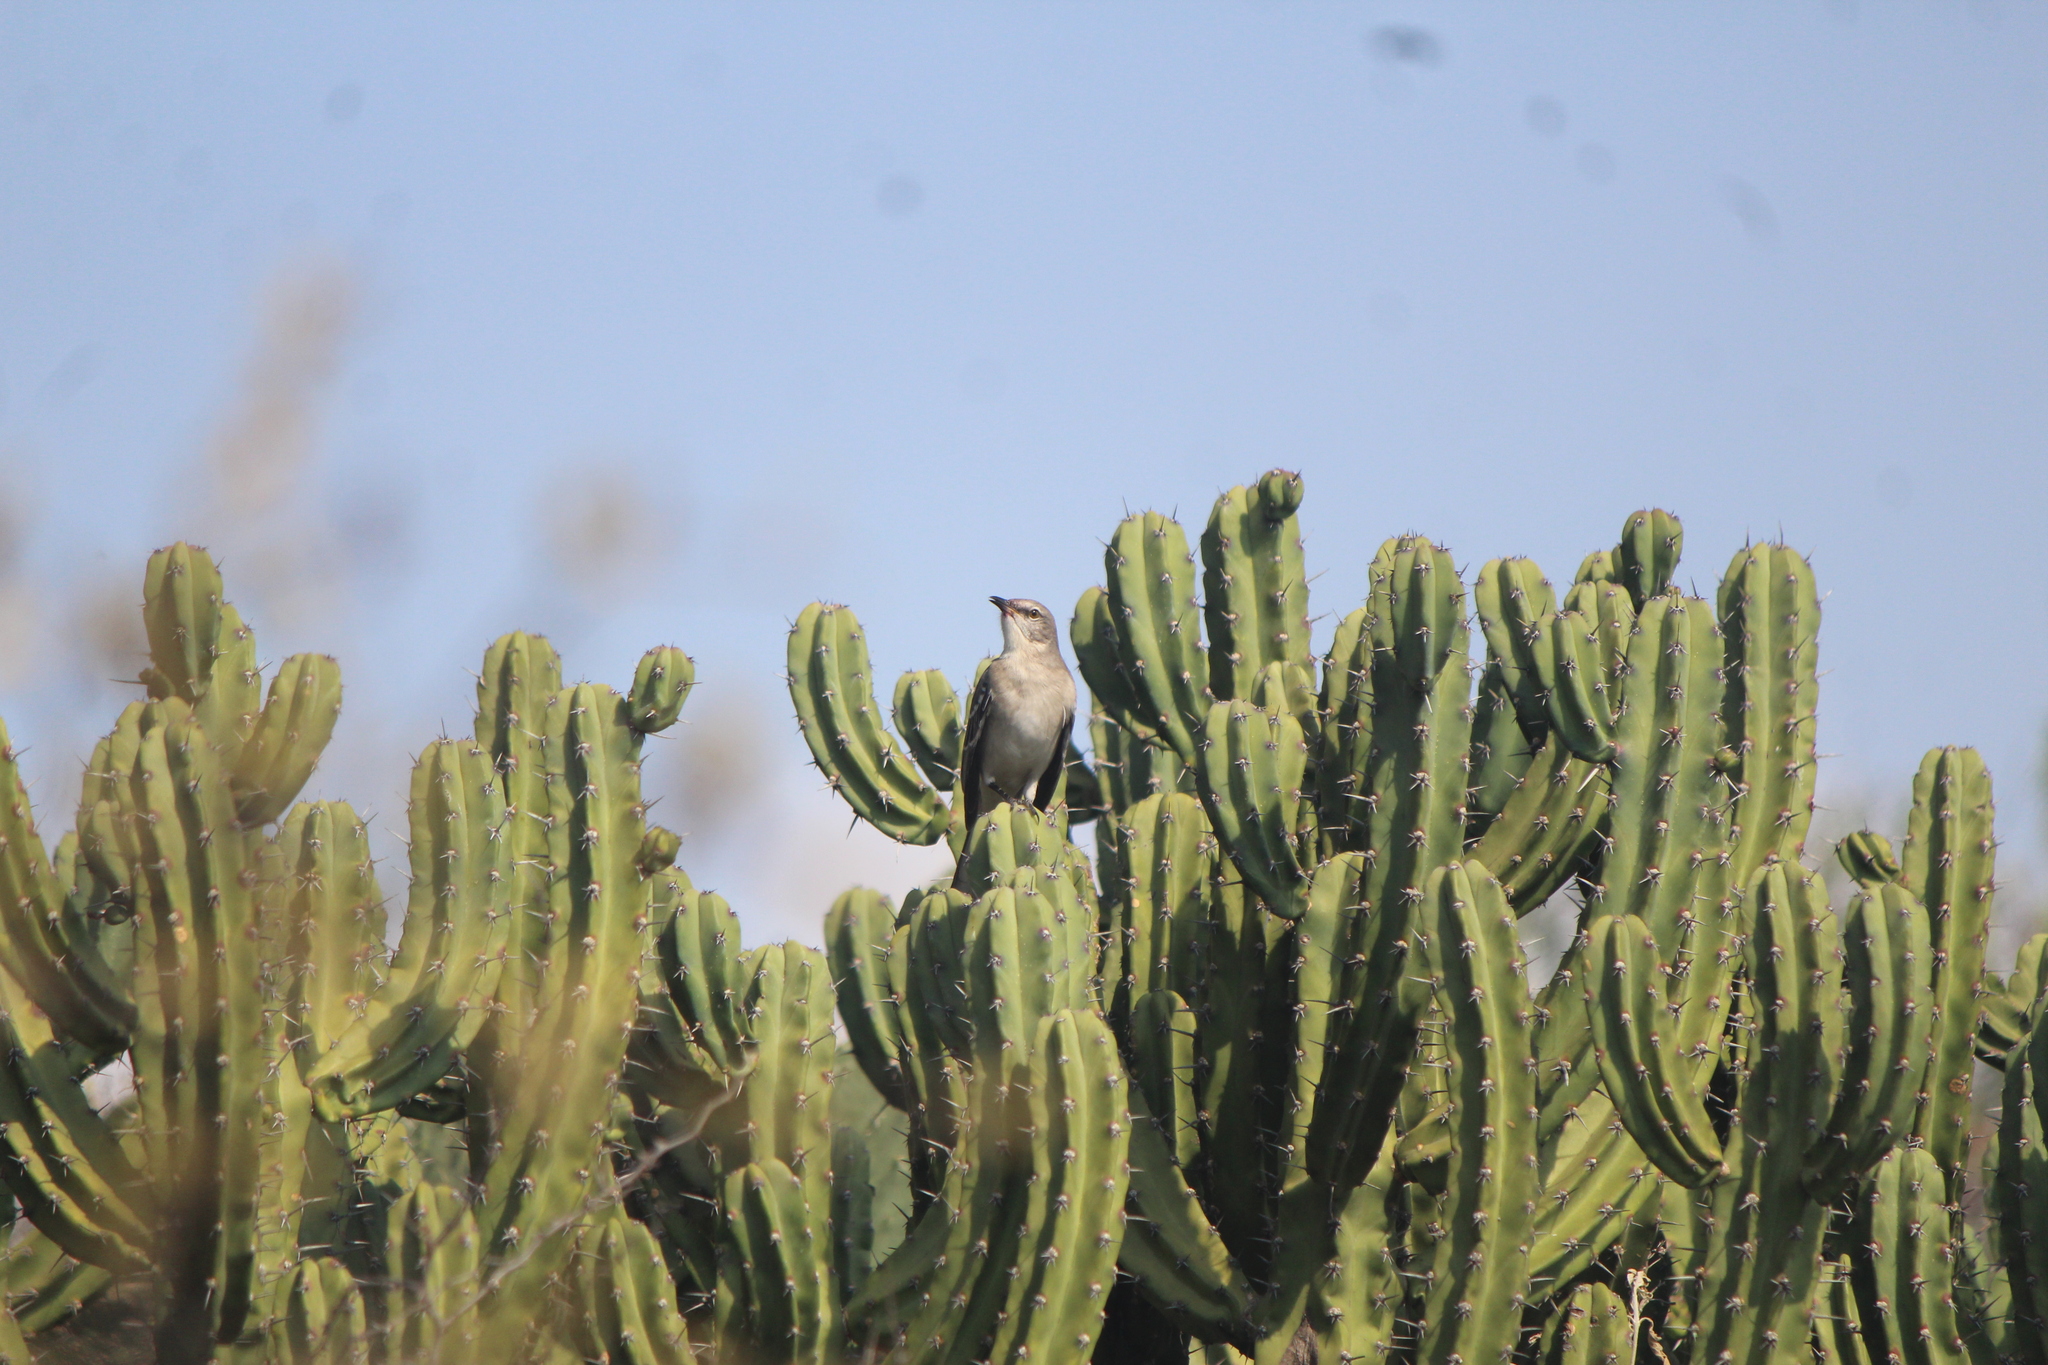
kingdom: Animalia
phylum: Chordata
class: Aves
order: Passeriformes
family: Mimidae
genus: Mimus
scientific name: Mimus polyglottos
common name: Northern mockingbird
